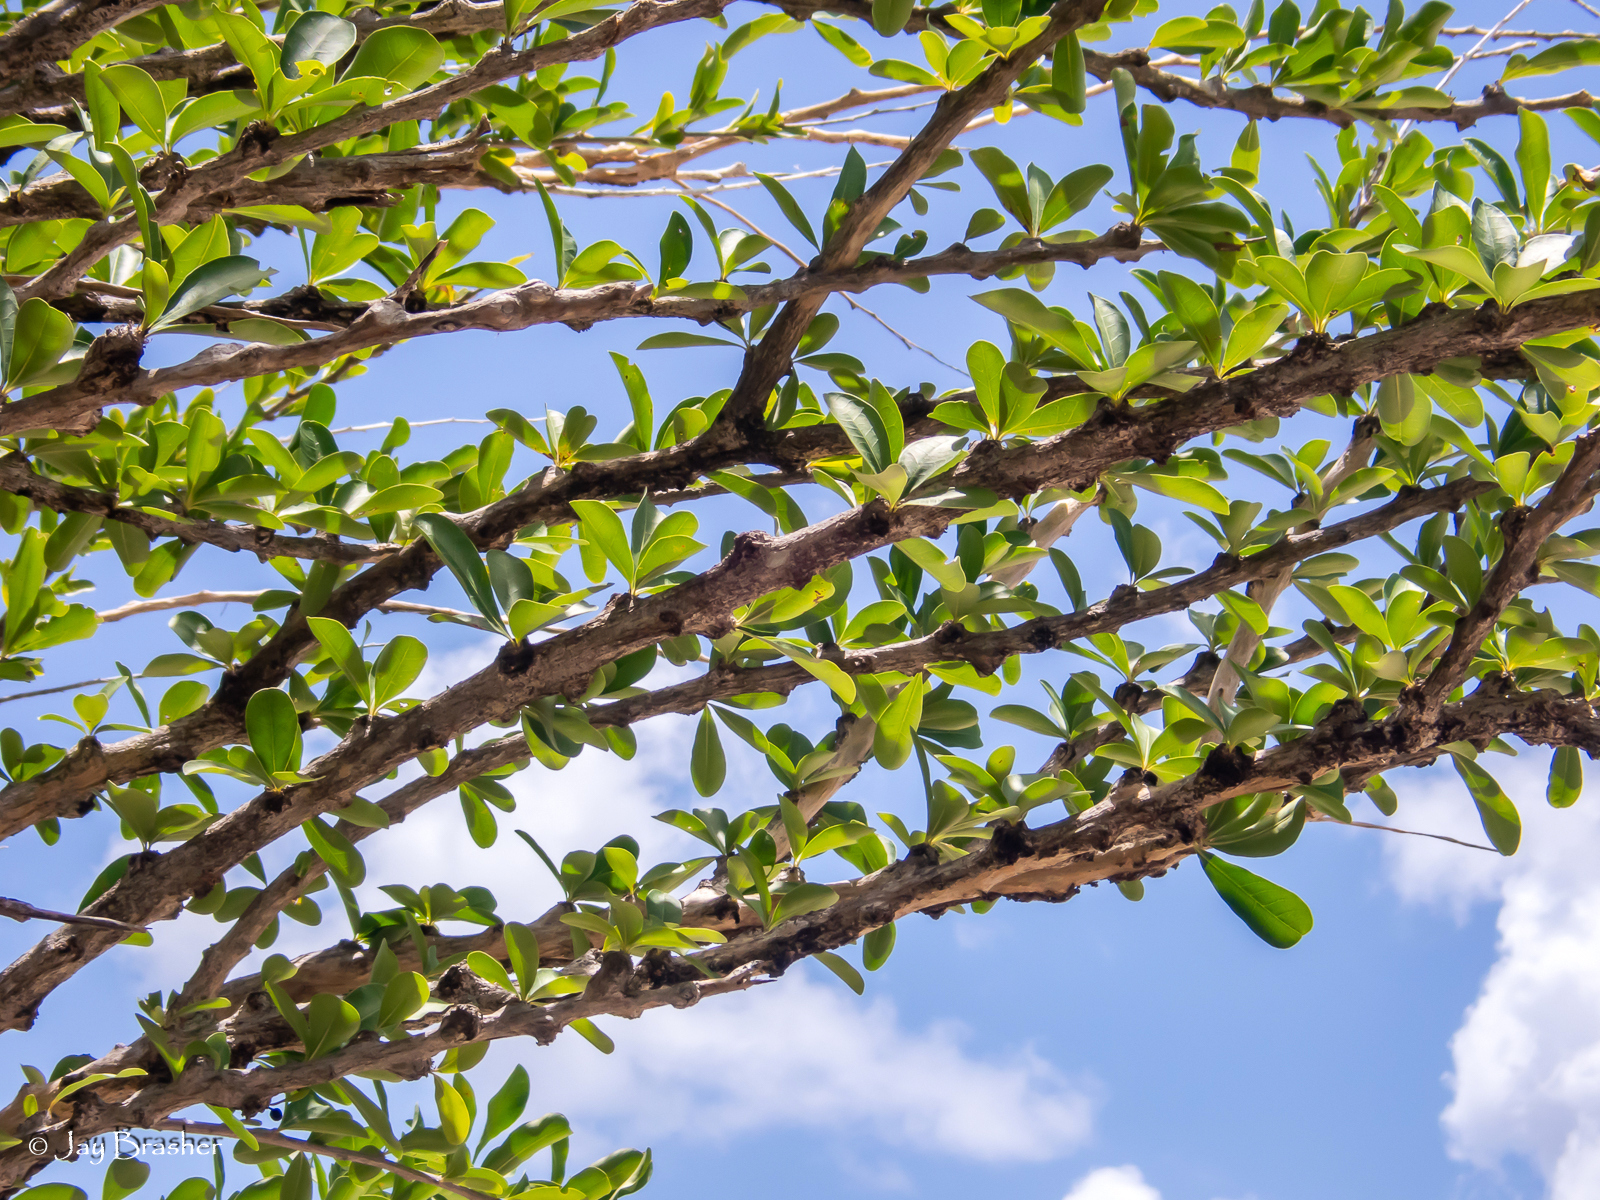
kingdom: Plantae
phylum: Tracheophyta
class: Magnoliopsida
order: Lamiales
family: Bignoniaceae
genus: Crescentia
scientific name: Crescentia cujete
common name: Calabash
